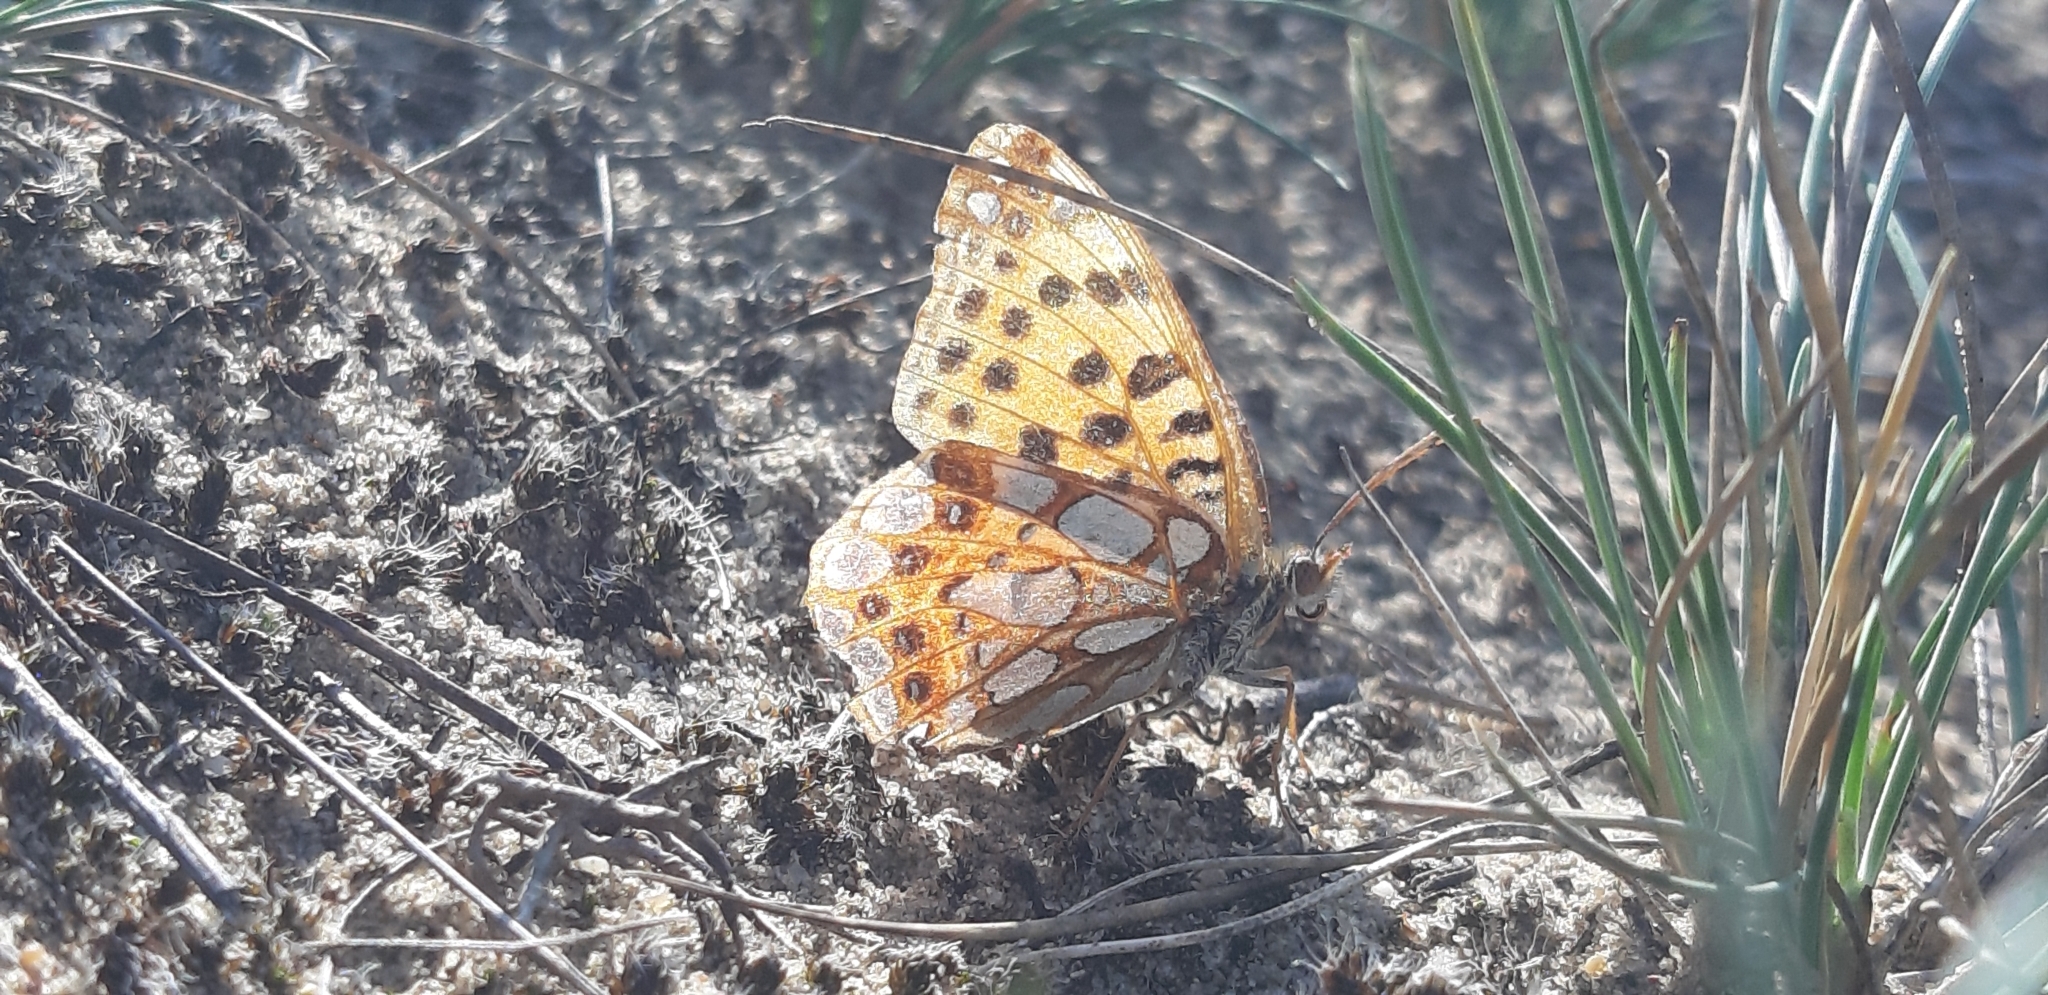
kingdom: Animalia
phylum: Arthropoda
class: Insecta
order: Lepidoptera
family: Nymphalidae
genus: Issoria
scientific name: Issoria lathonia
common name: Queen of spain fritillary
